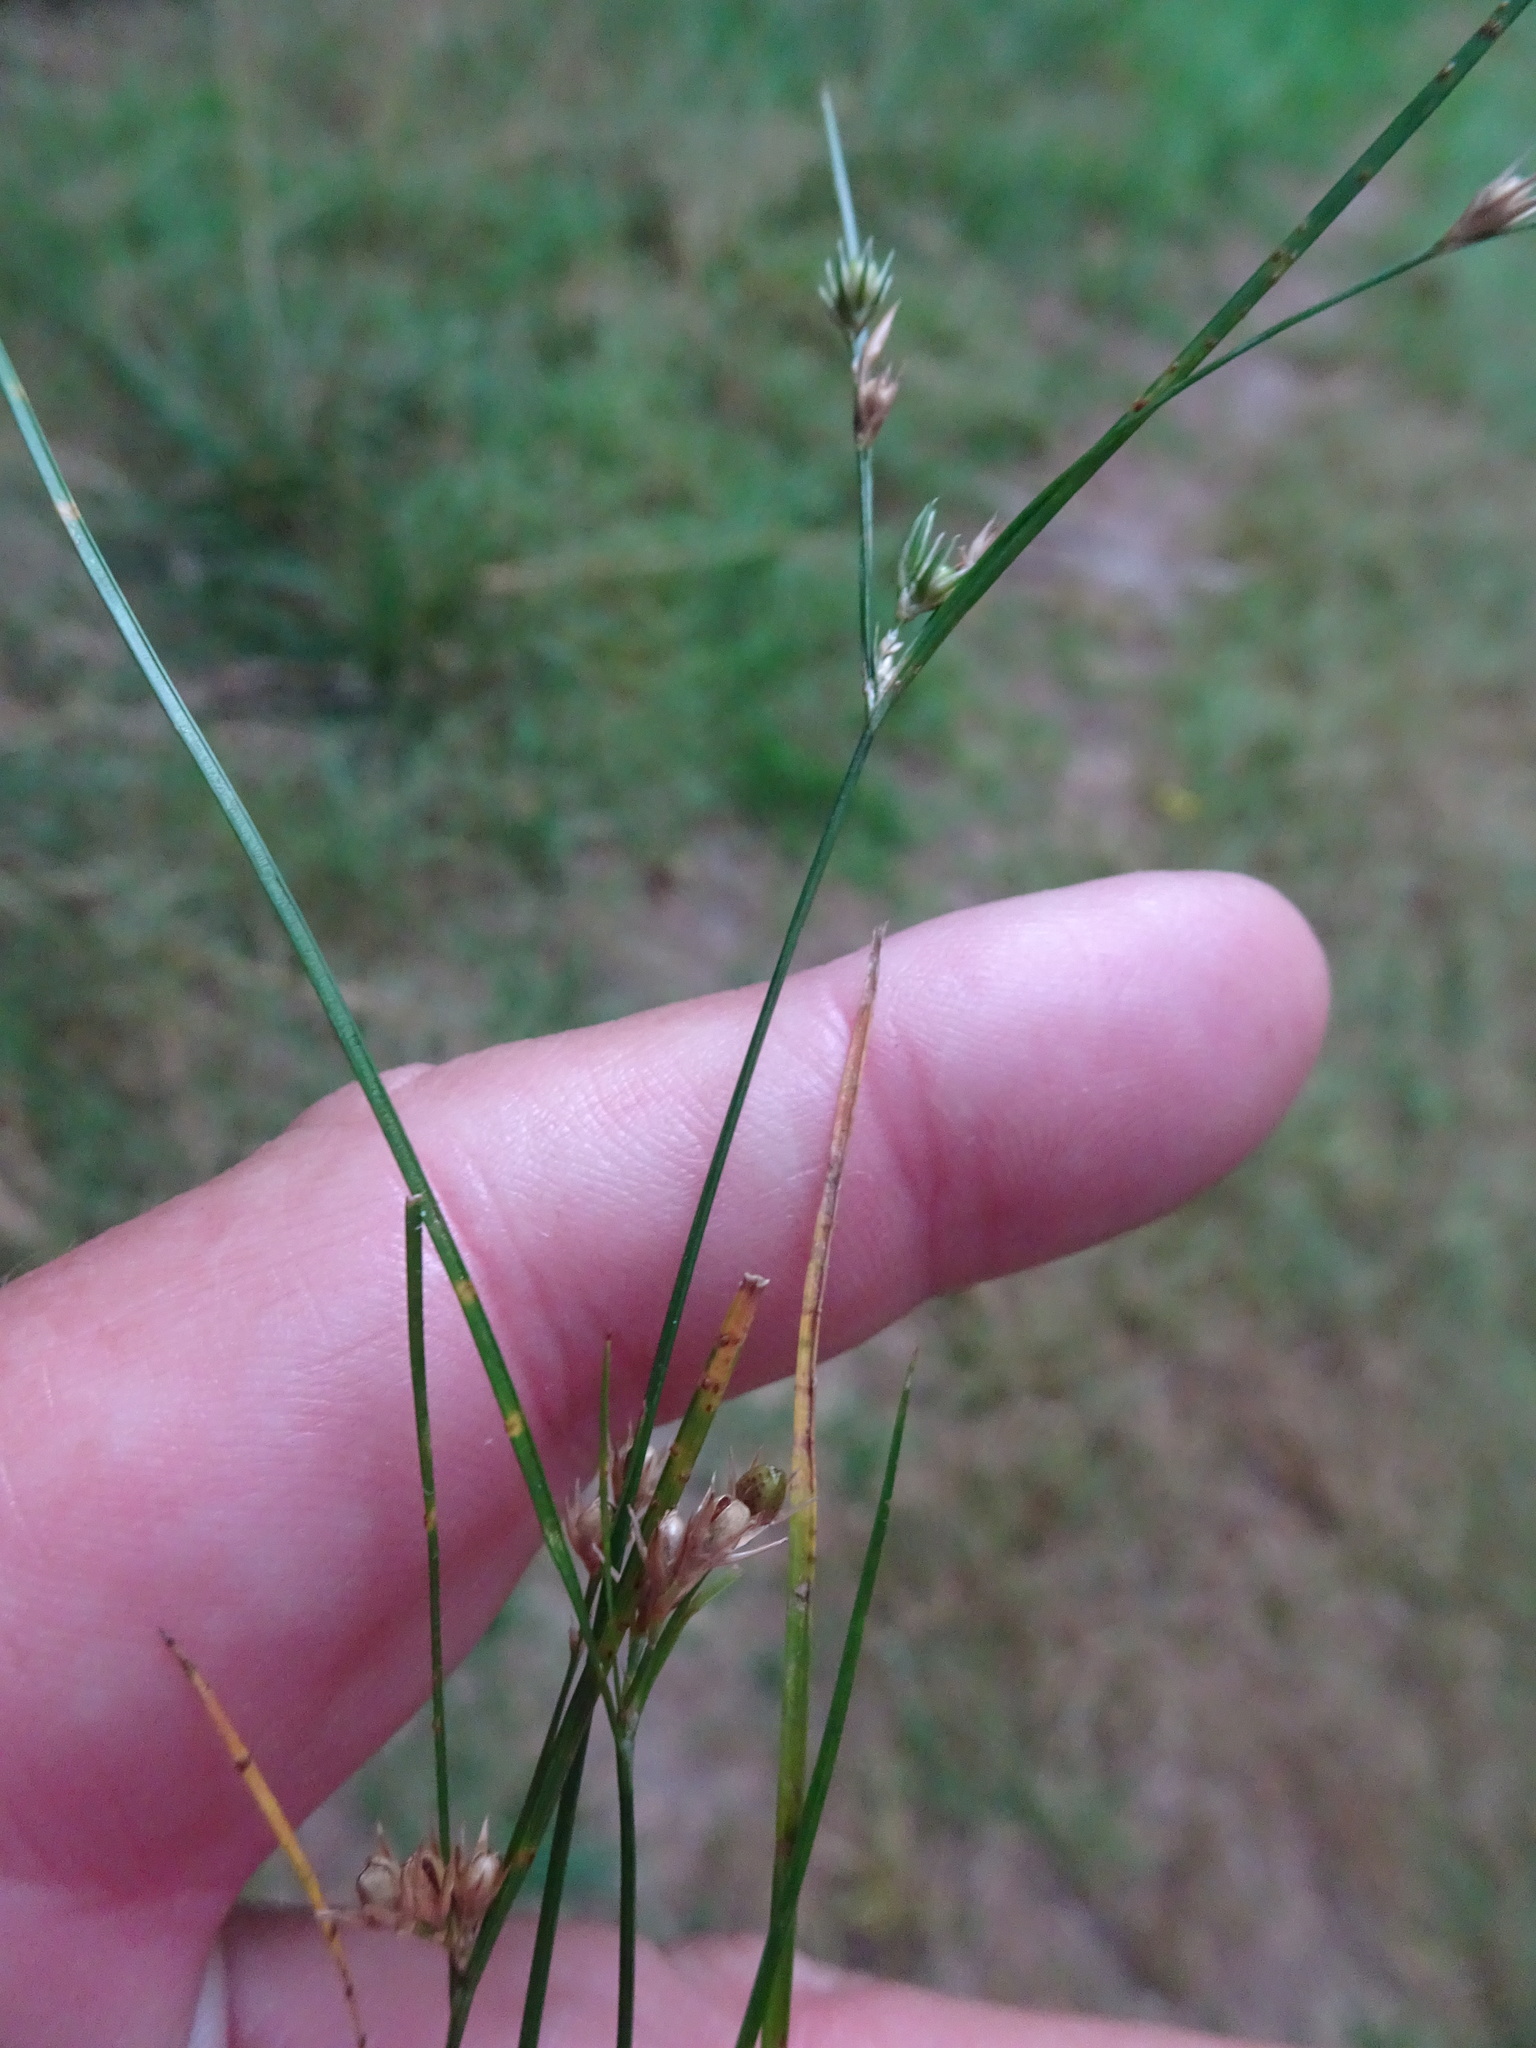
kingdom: Plantae
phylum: Tracheophyta
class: Liliopsida
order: Poales
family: Juncaceae
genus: Juncus
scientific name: Juncus tenuis
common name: Slender rush
